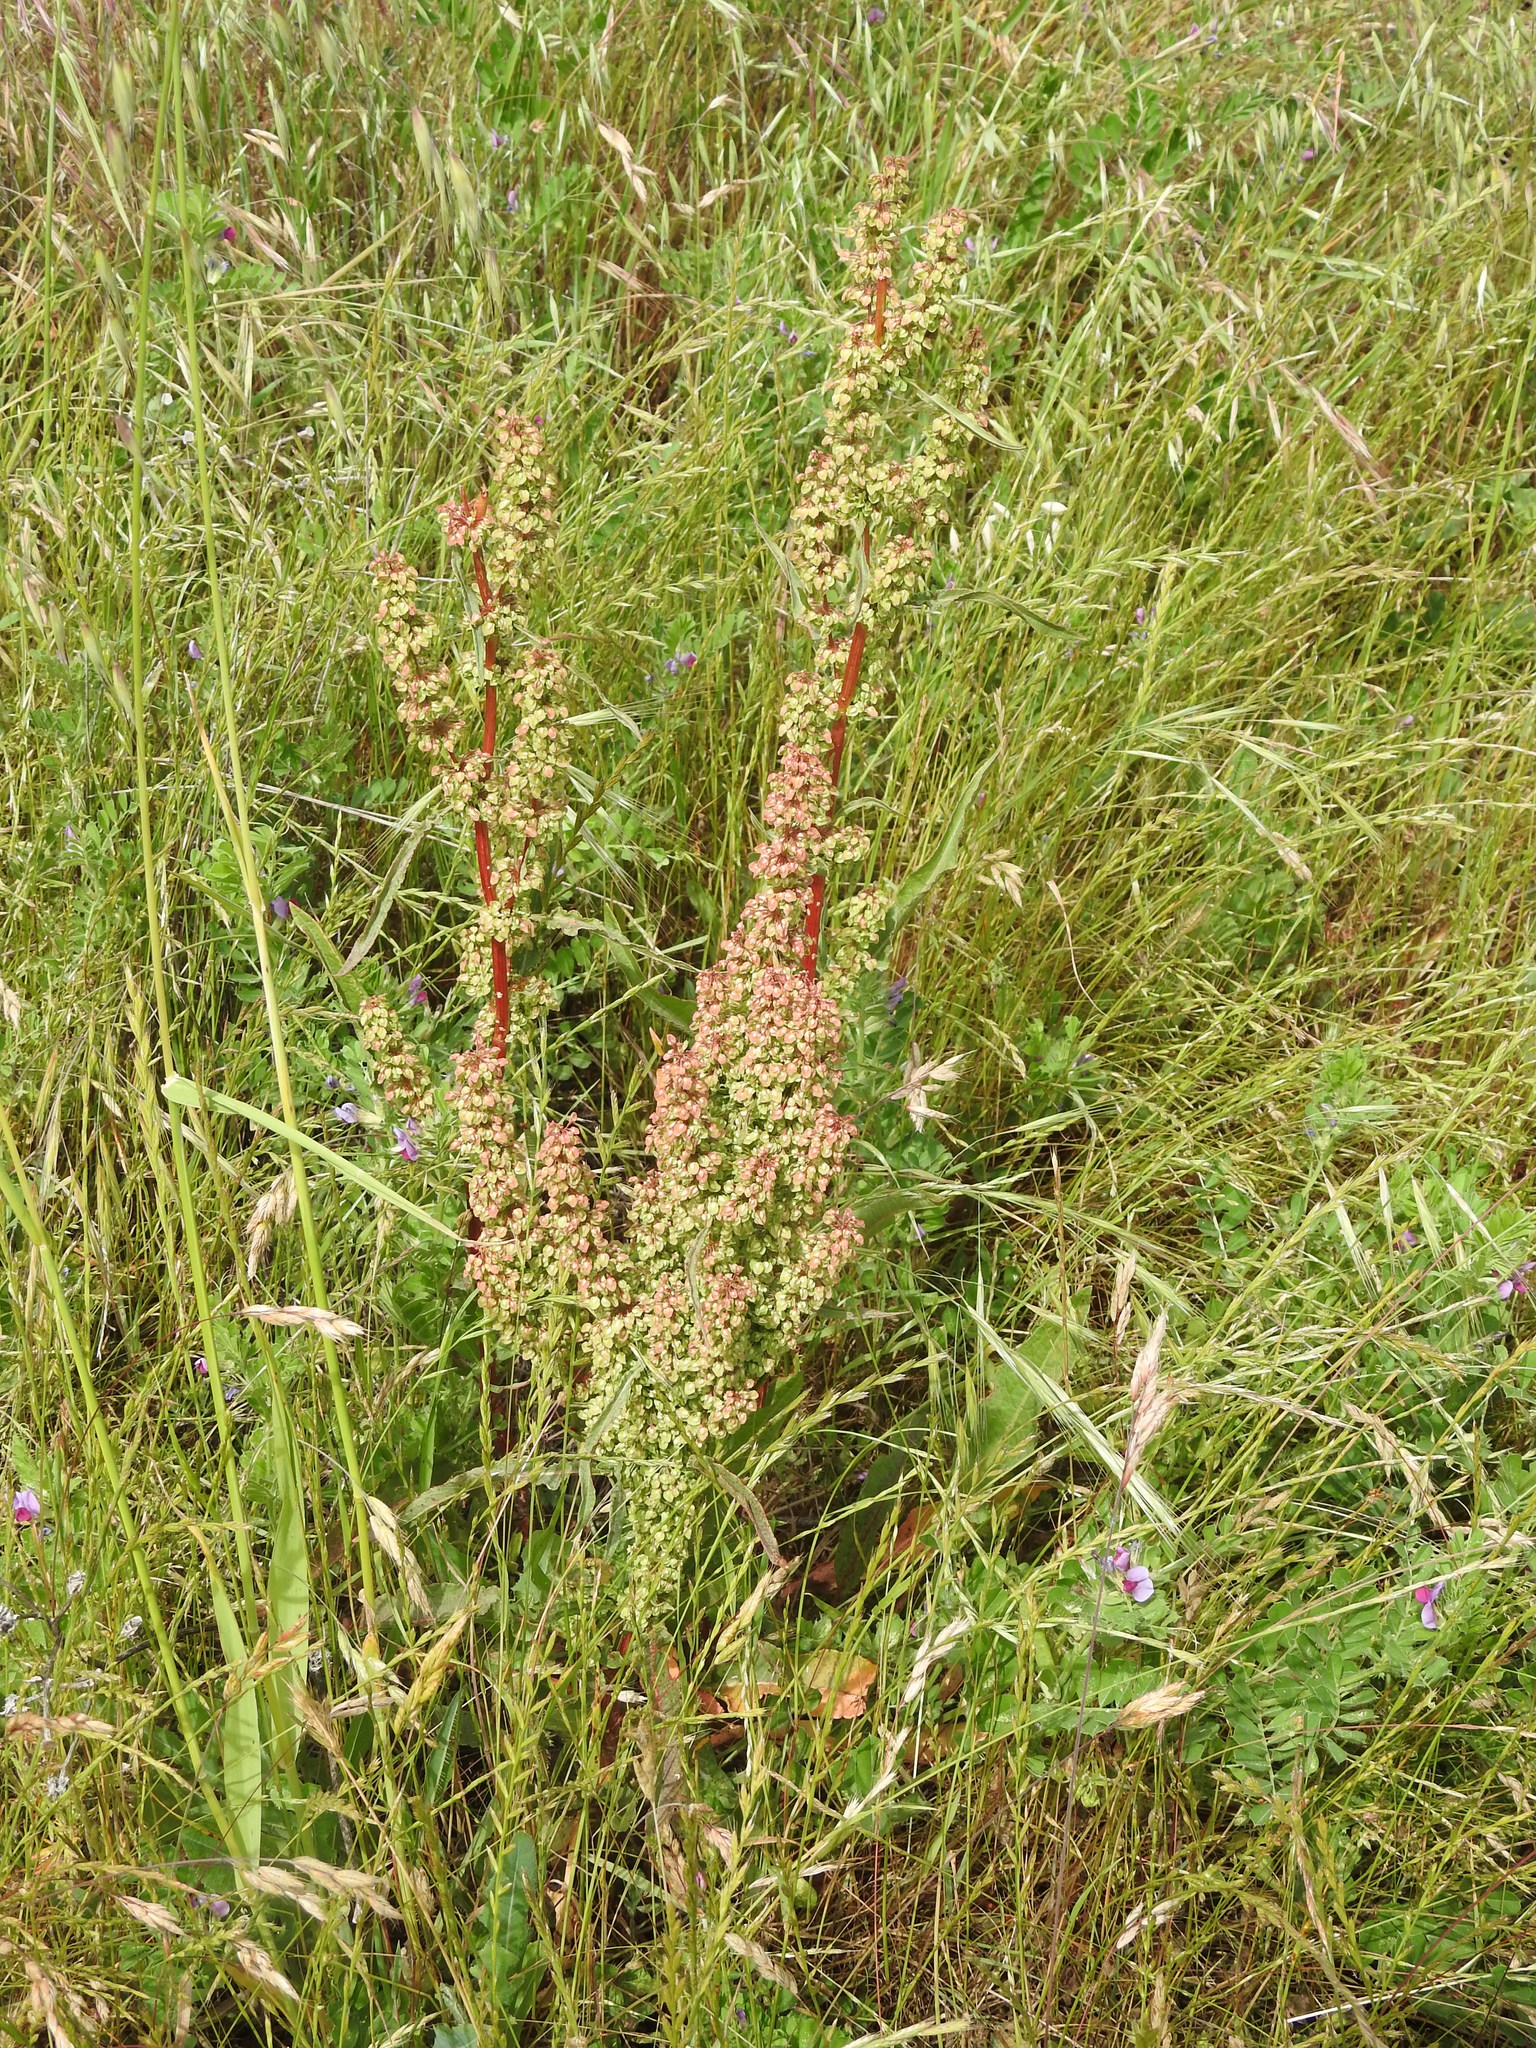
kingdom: Plantae
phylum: Tracheophyta
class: Magnoliopsida
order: Caryophyllales
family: Polygonaceae
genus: Rumex
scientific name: Rumex crispus
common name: Curled dock
